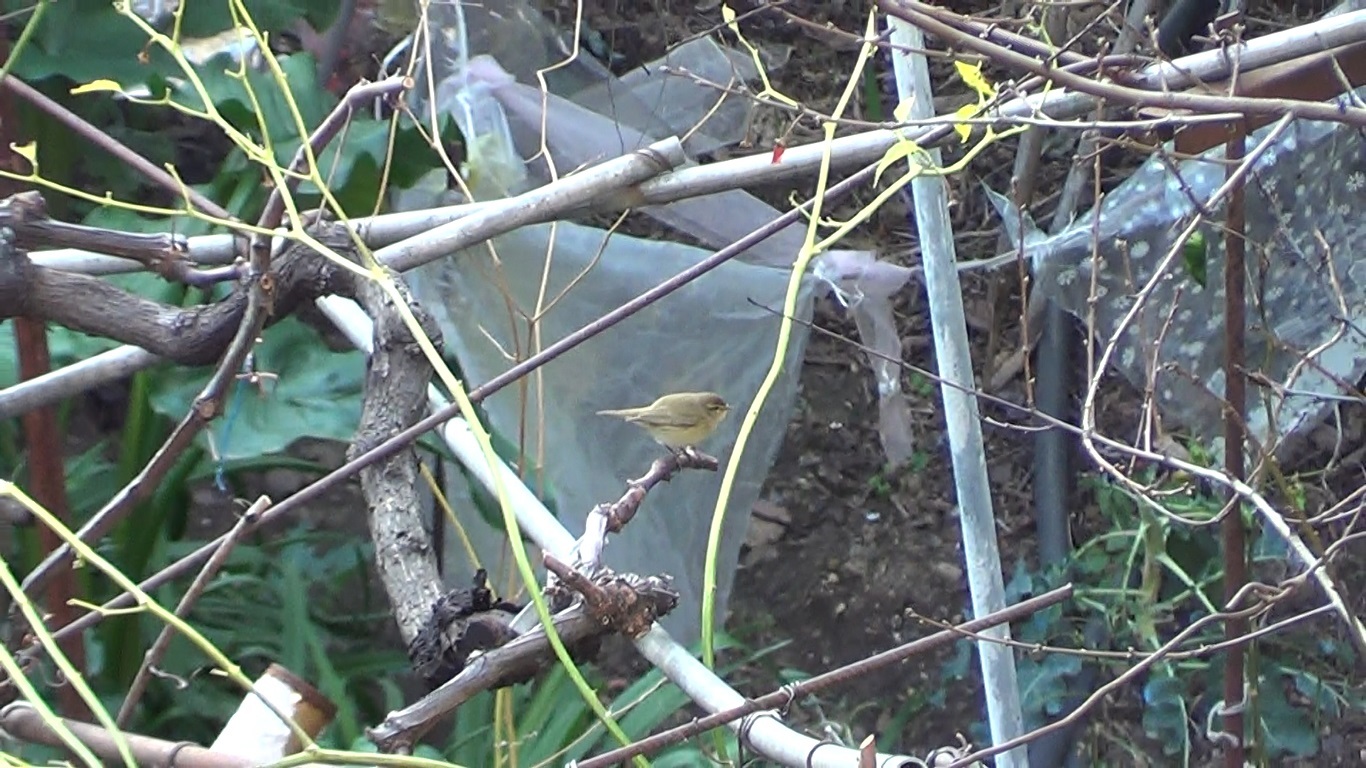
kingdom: Animalia
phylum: Chordata
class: Aves
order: Passeriformes
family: Phylloscopidae
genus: Phylloscopus
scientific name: Phylloscopus collybita
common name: Common chiffchaff
